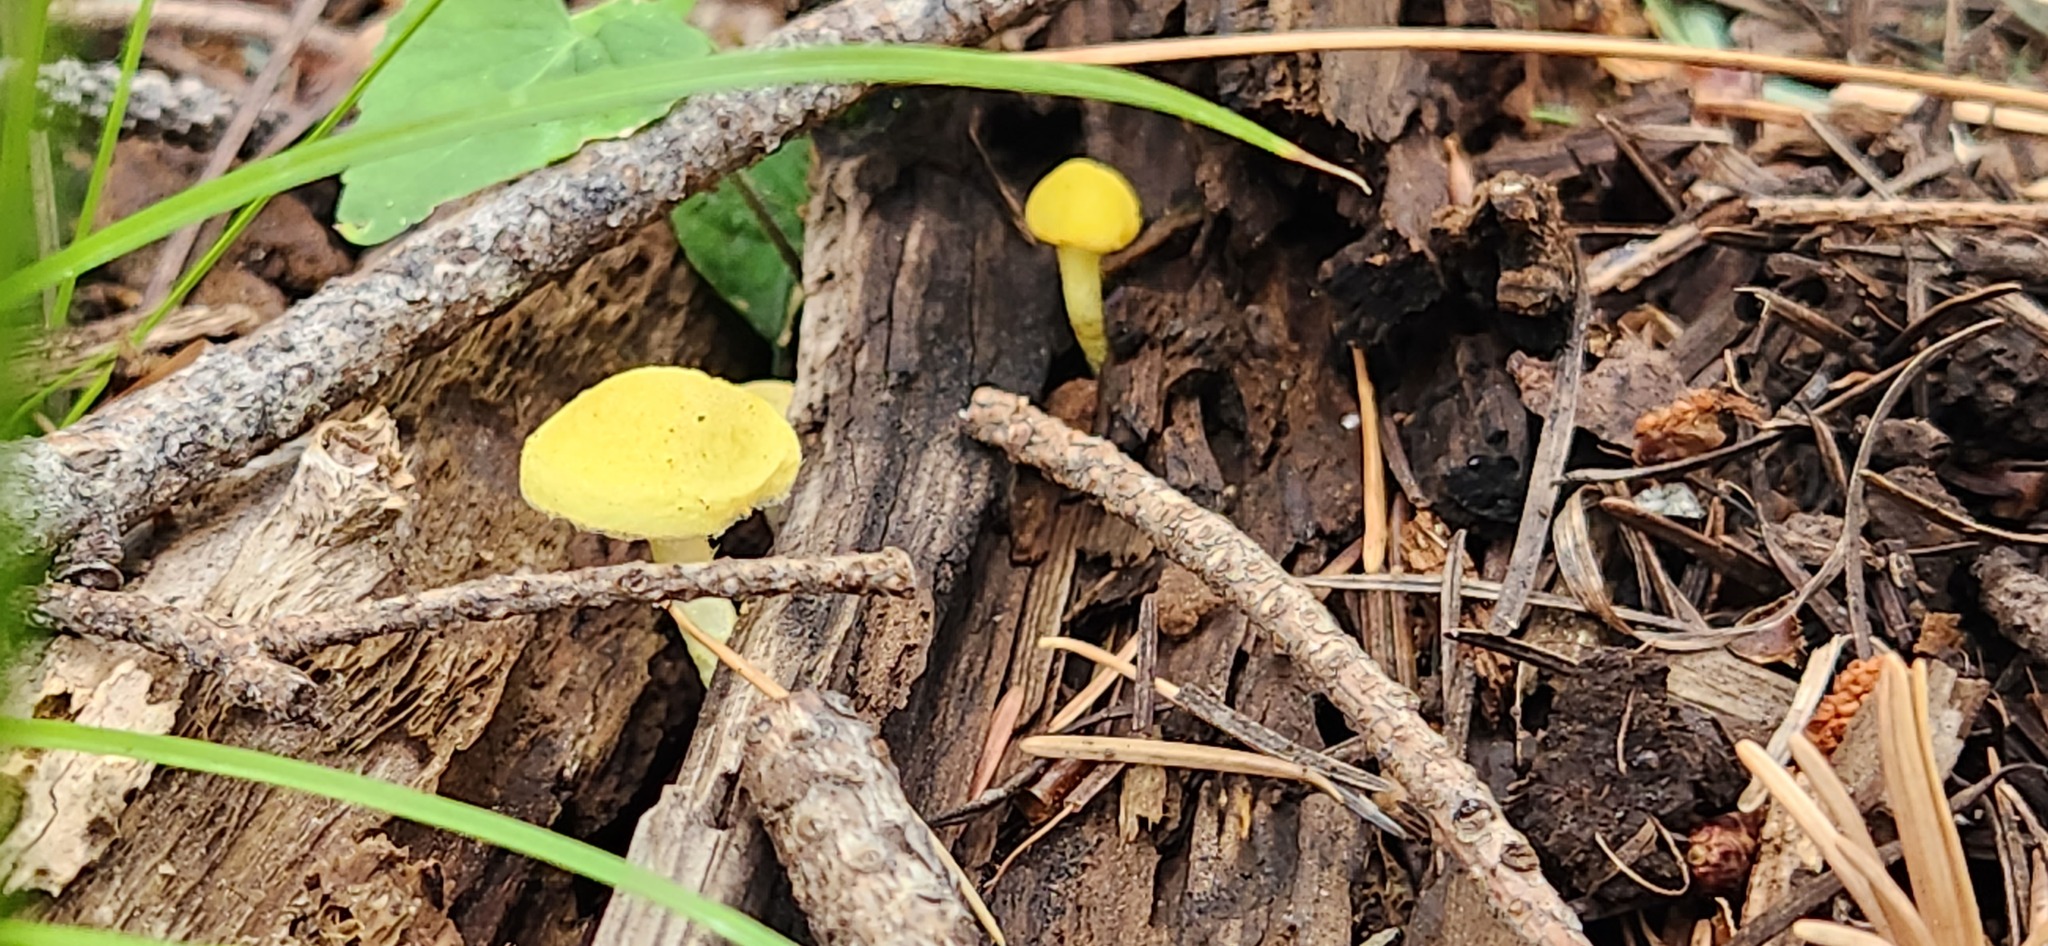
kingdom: Fungi
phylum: Basidiomycota
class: Agaricomycetes
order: Agaricales
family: Physalacriaceae
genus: Cyptotrama
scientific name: Cyptotrama chrysopepla
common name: Golden coincap
